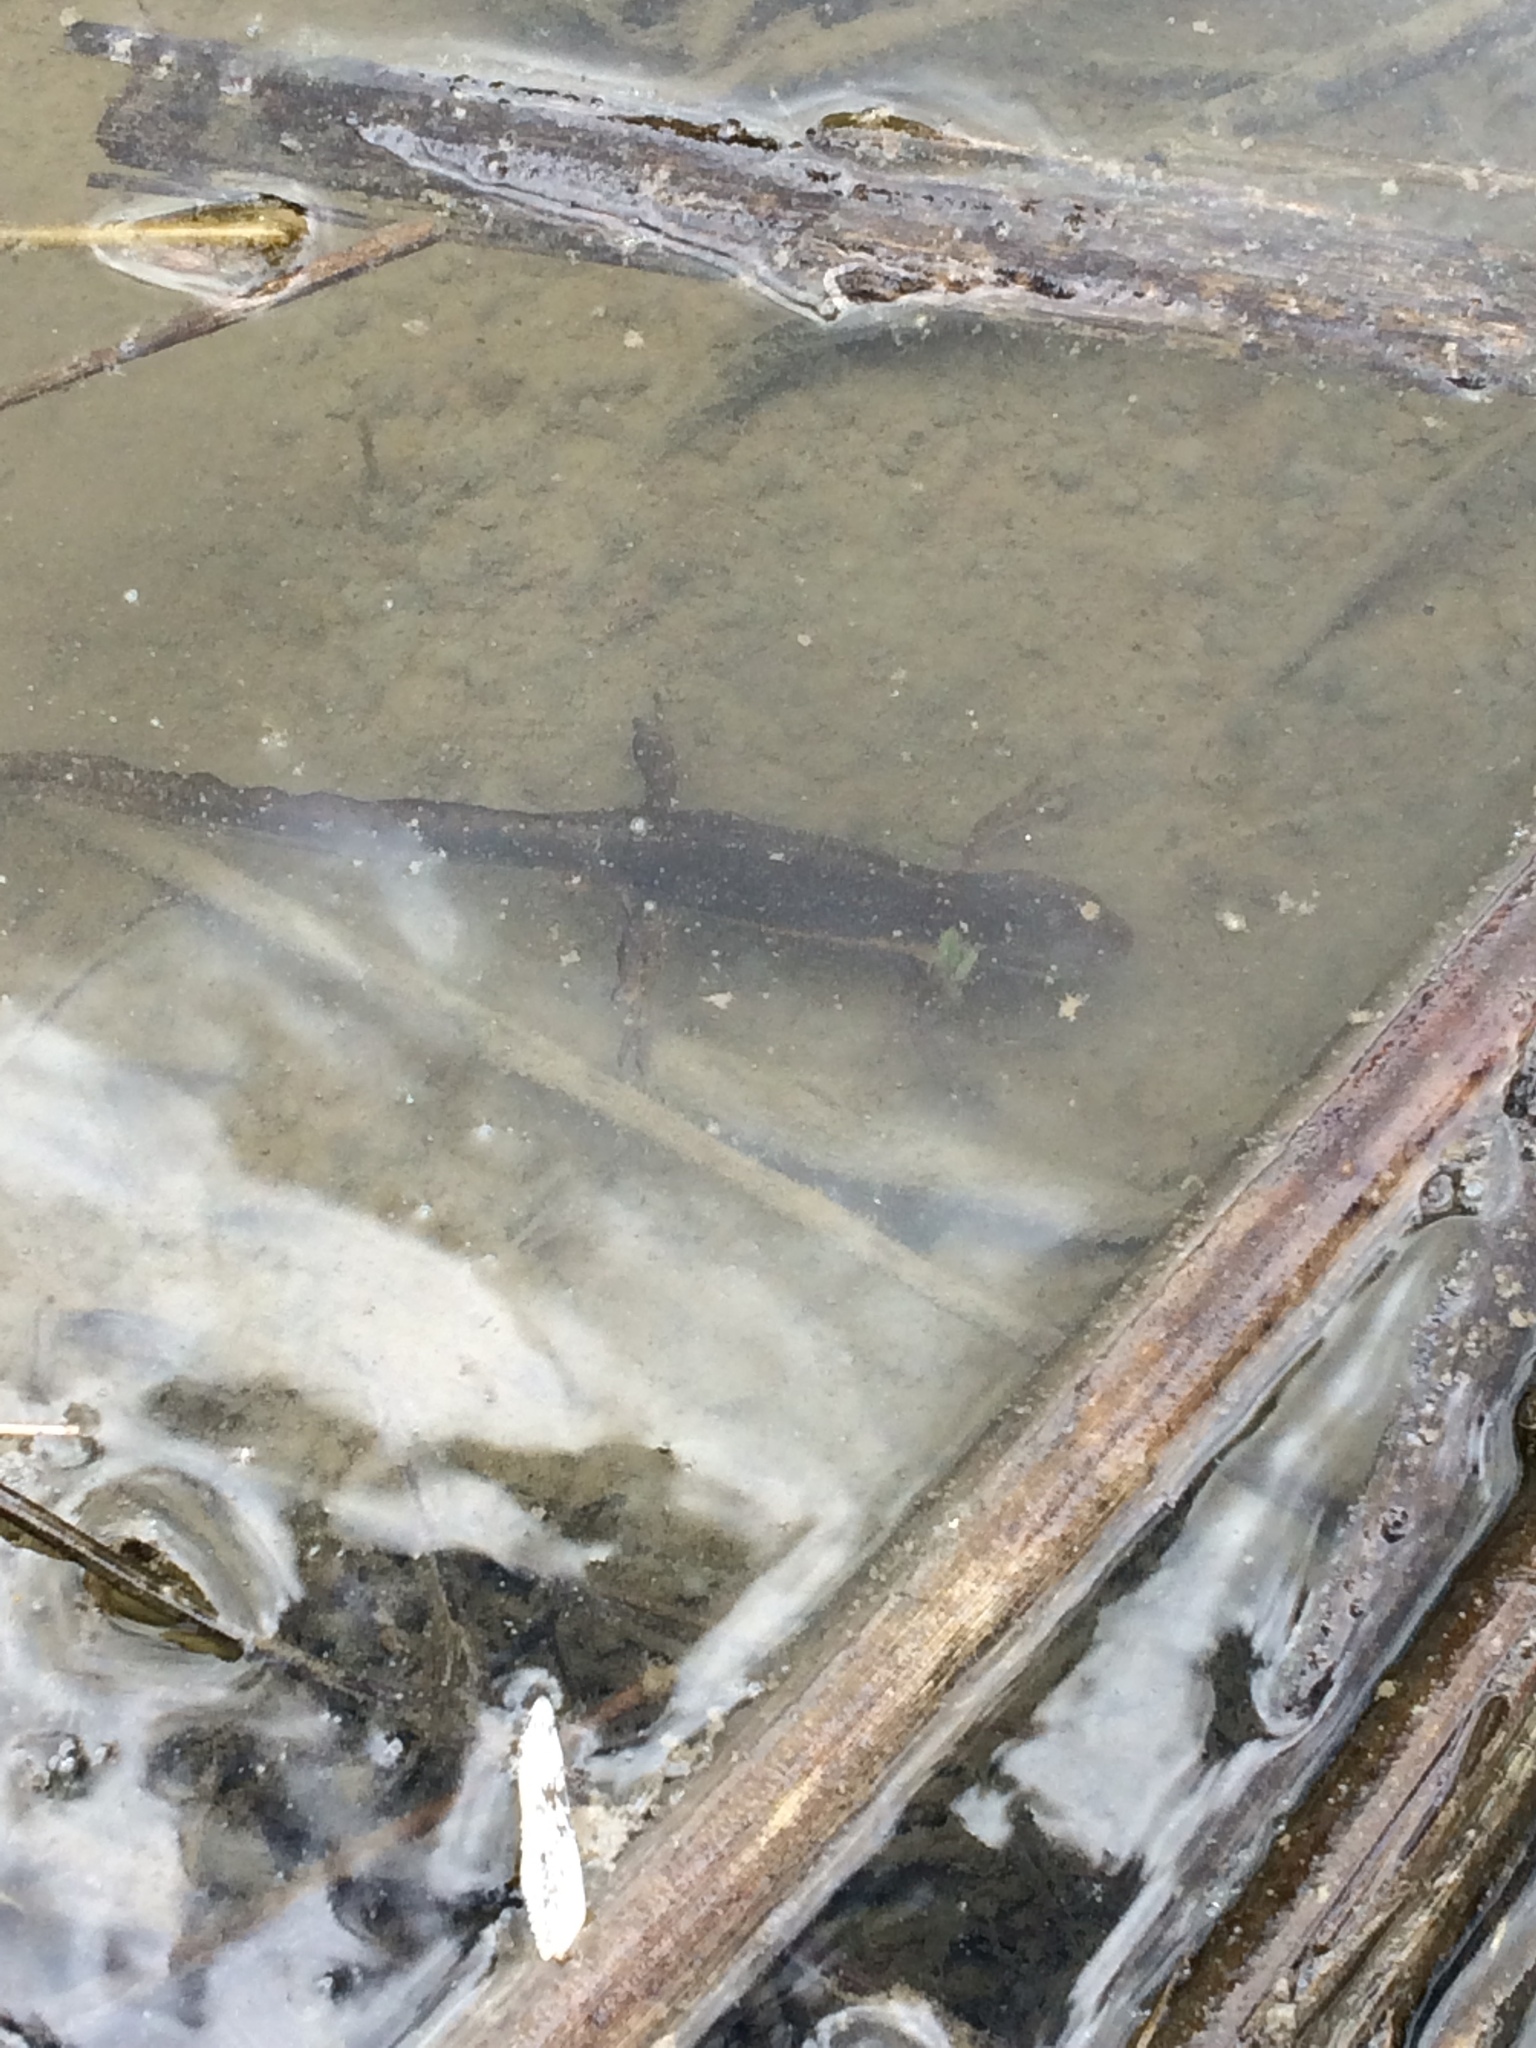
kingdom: Animalia
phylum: Chordata
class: Amphibia
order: Caudata
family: Salamandridae
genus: Notophthalmus
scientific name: Notophthalmus viridescens
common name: Eastern newt
